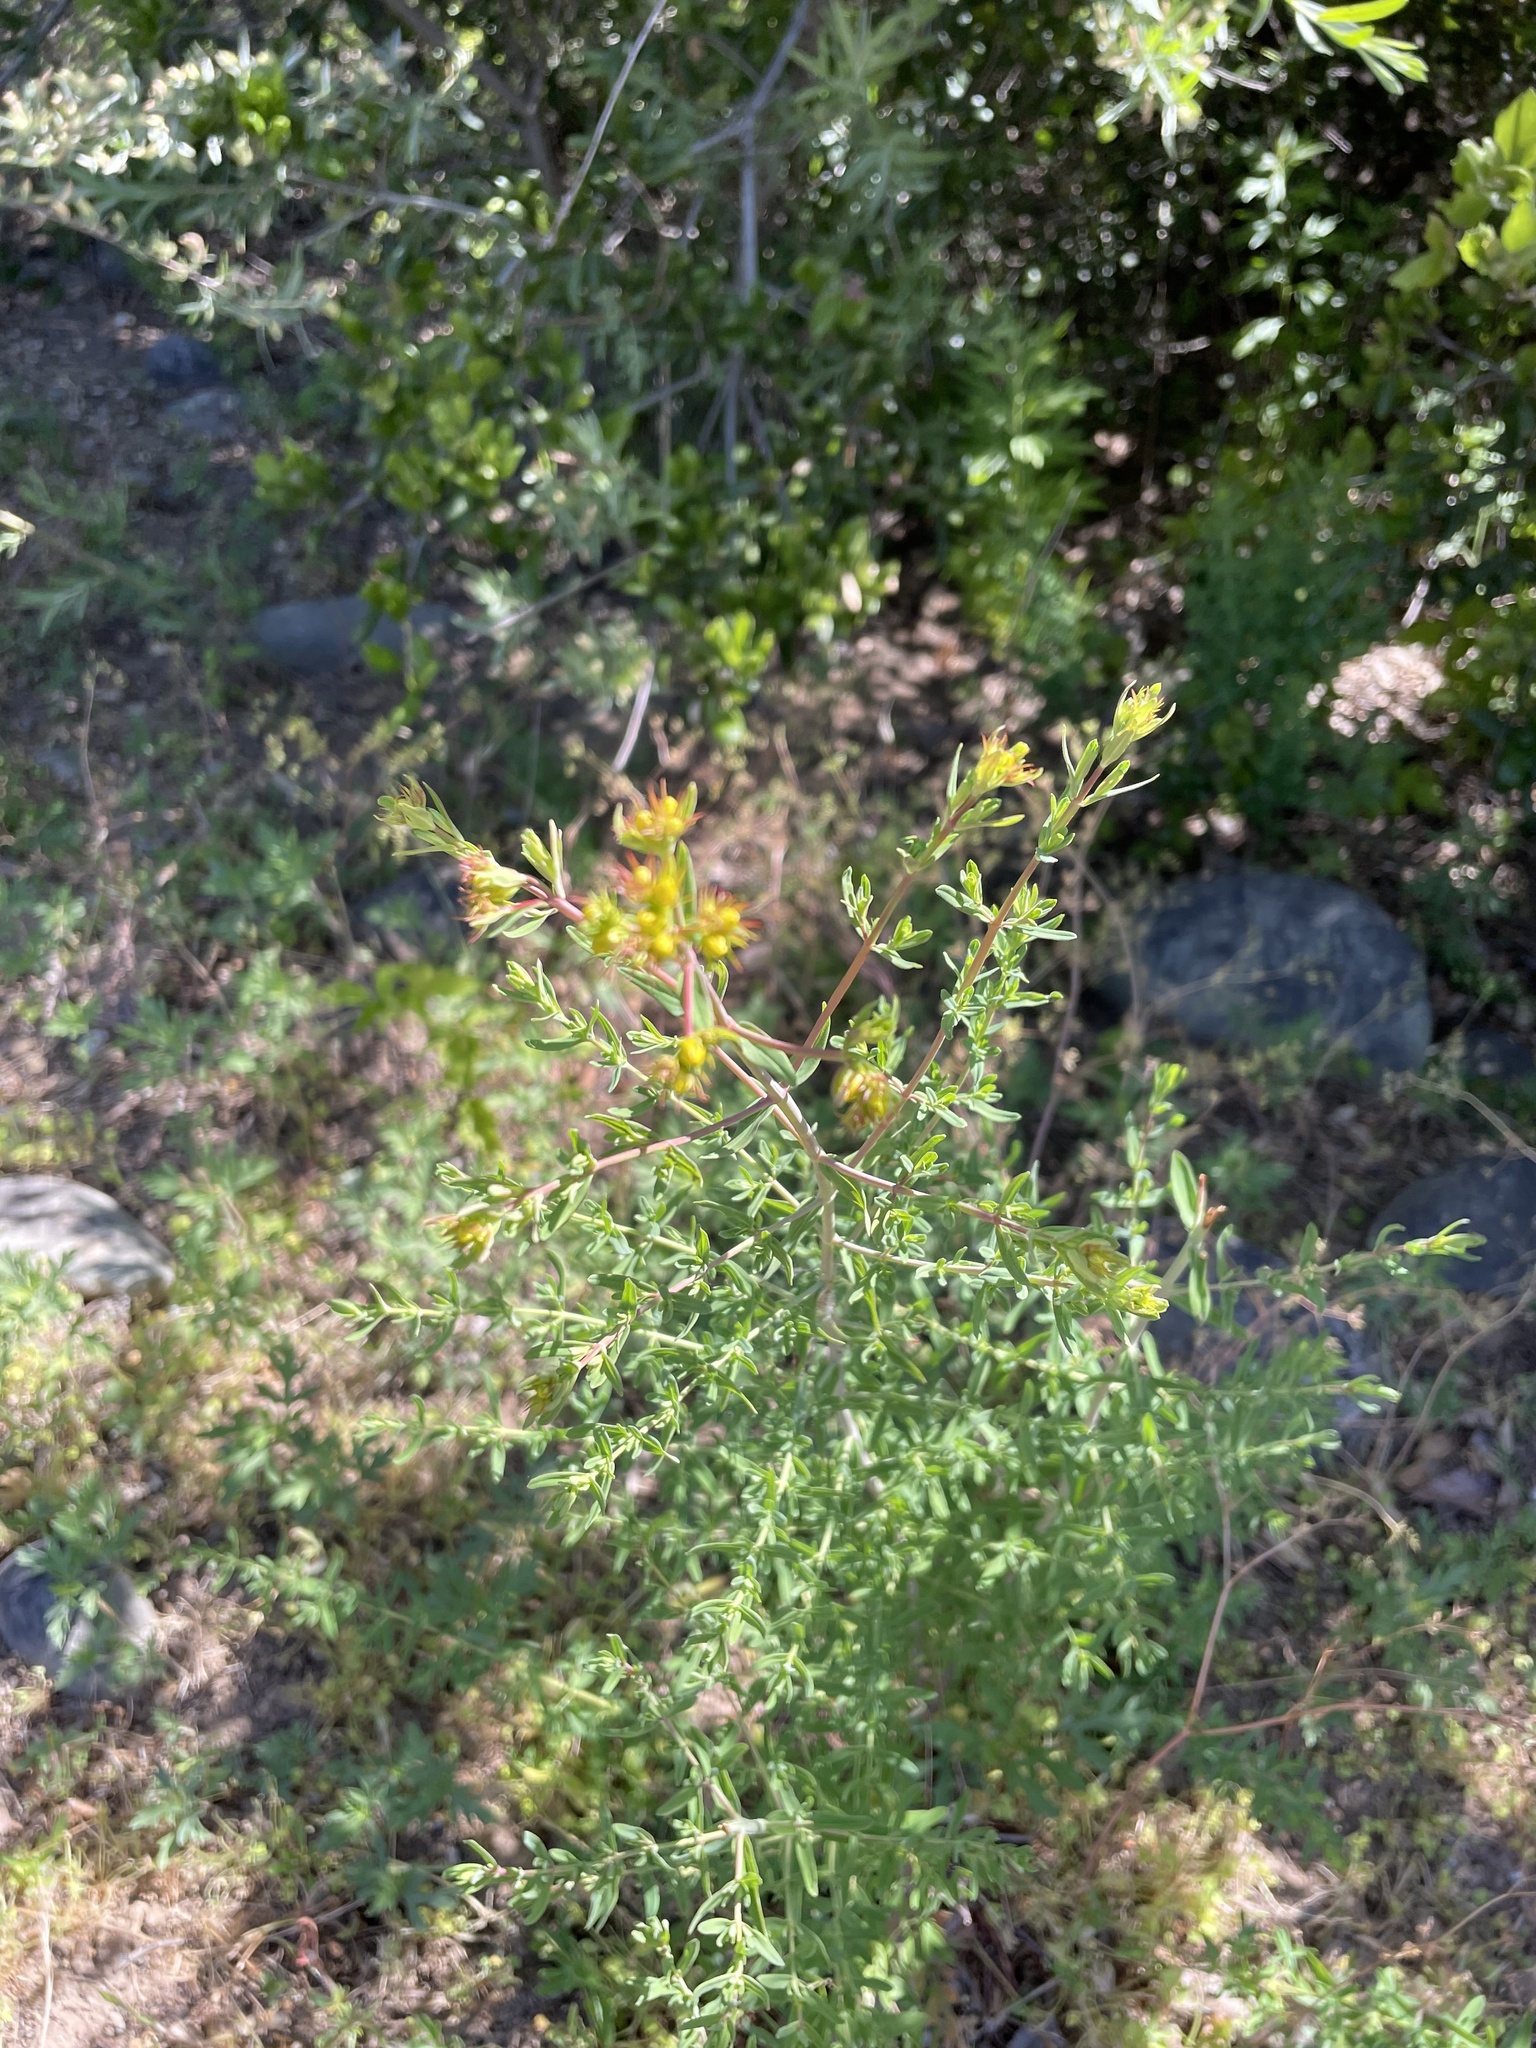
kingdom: Plantae
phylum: Tracheophyta
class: Magnoliopsida
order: Malpighiales
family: Hypericaceae
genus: Hypericum
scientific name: Hypericum perforatum
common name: Common st. johnswort
